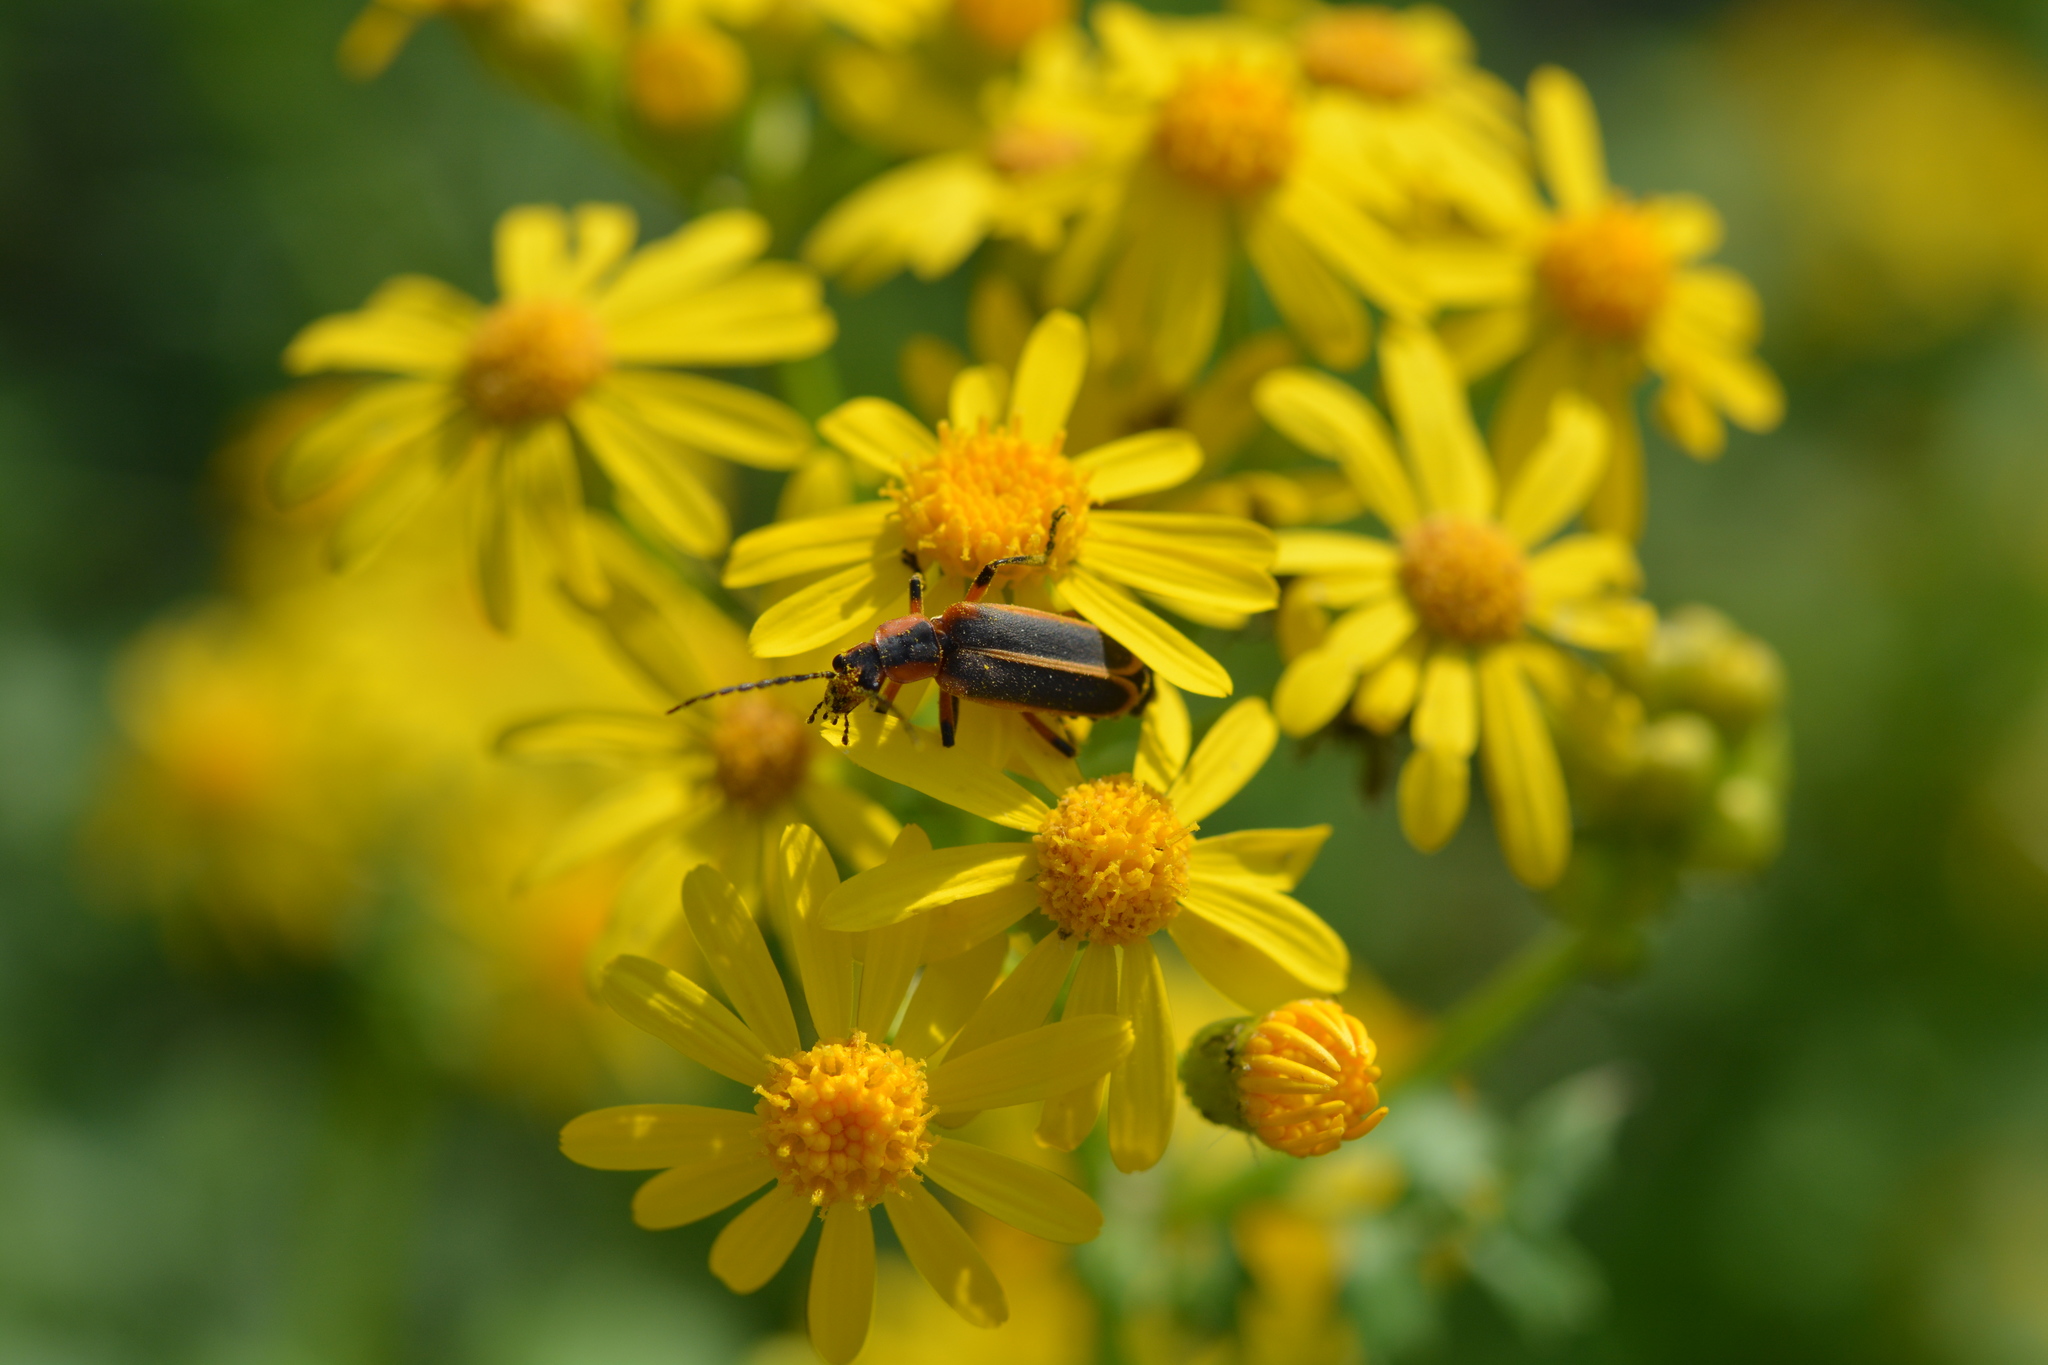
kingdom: Animalia
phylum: Arthropoda
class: Insecta
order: Coleoptera
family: Cantharidae
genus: Chauliognathus
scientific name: Chauliognathus marginatus
